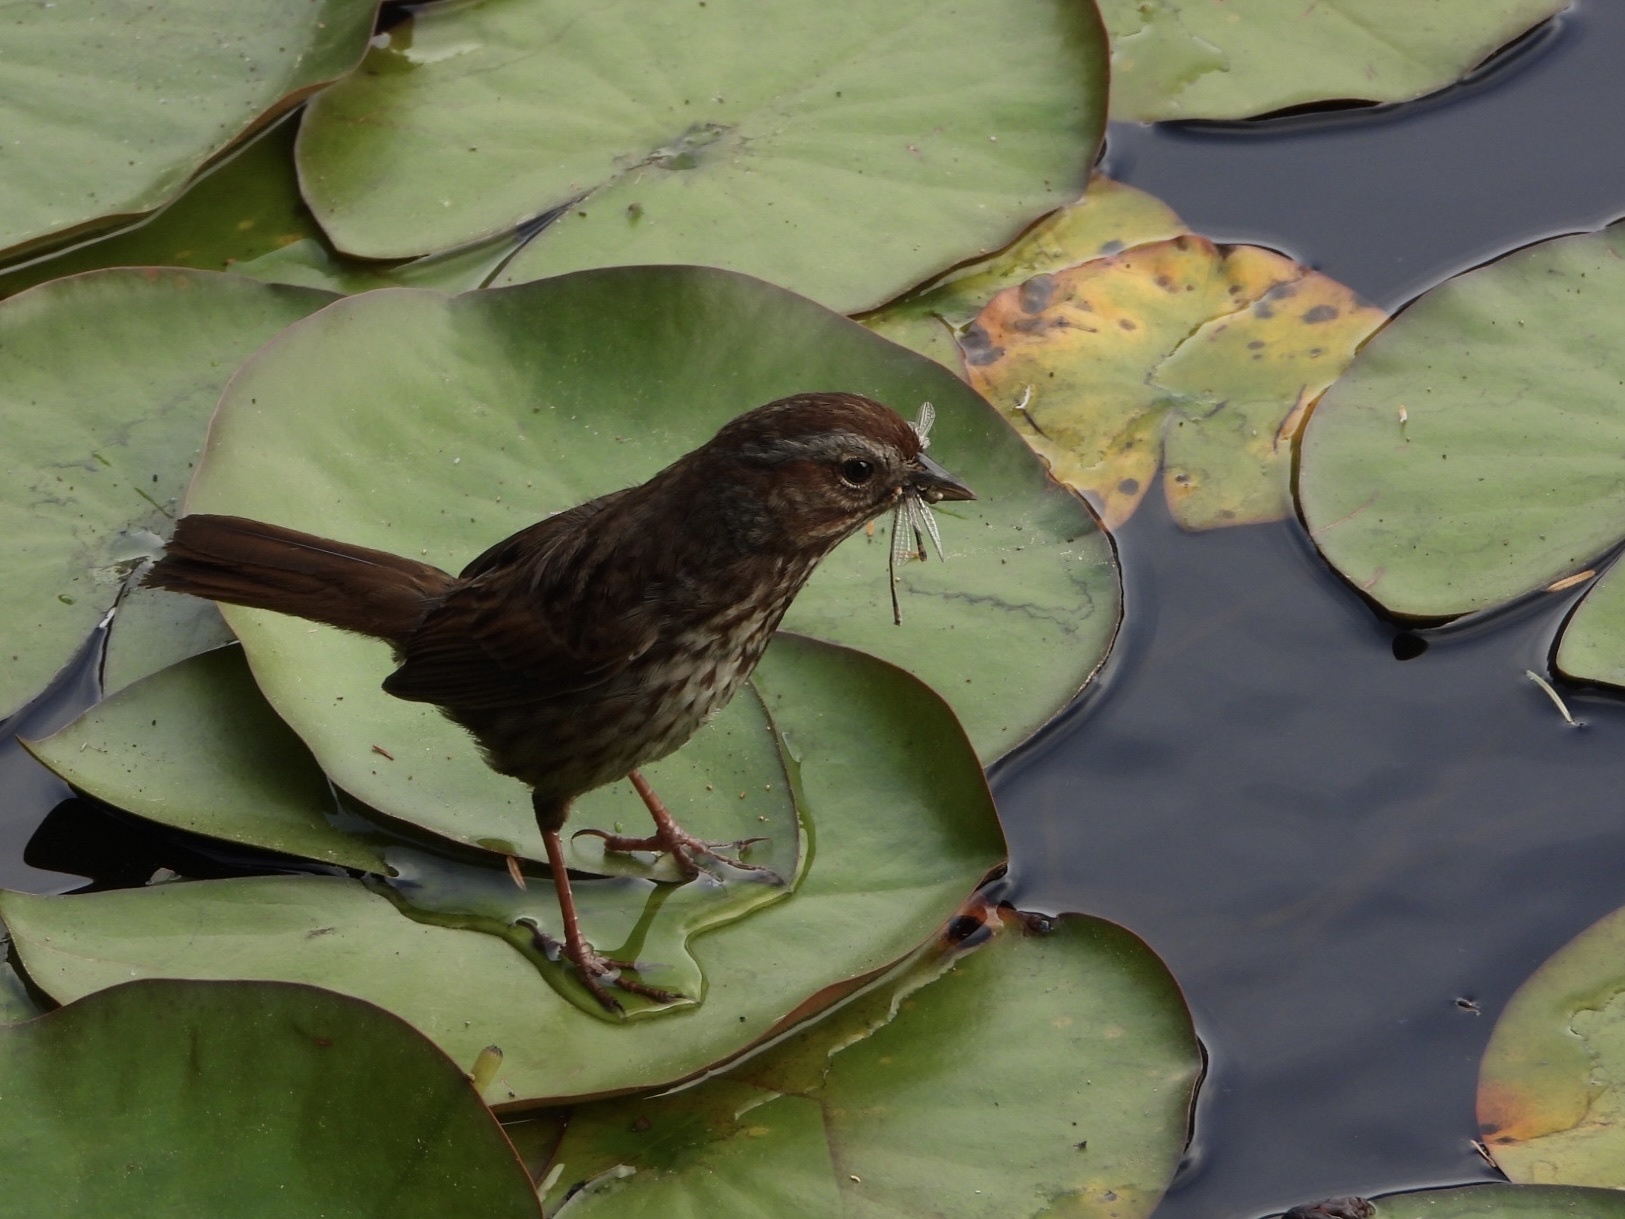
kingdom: Animalia
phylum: Chordata
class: Aves
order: Passeriformes
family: Passerellidae
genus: Melospiza
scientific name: Melospiza melodia
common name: Song sparrow
